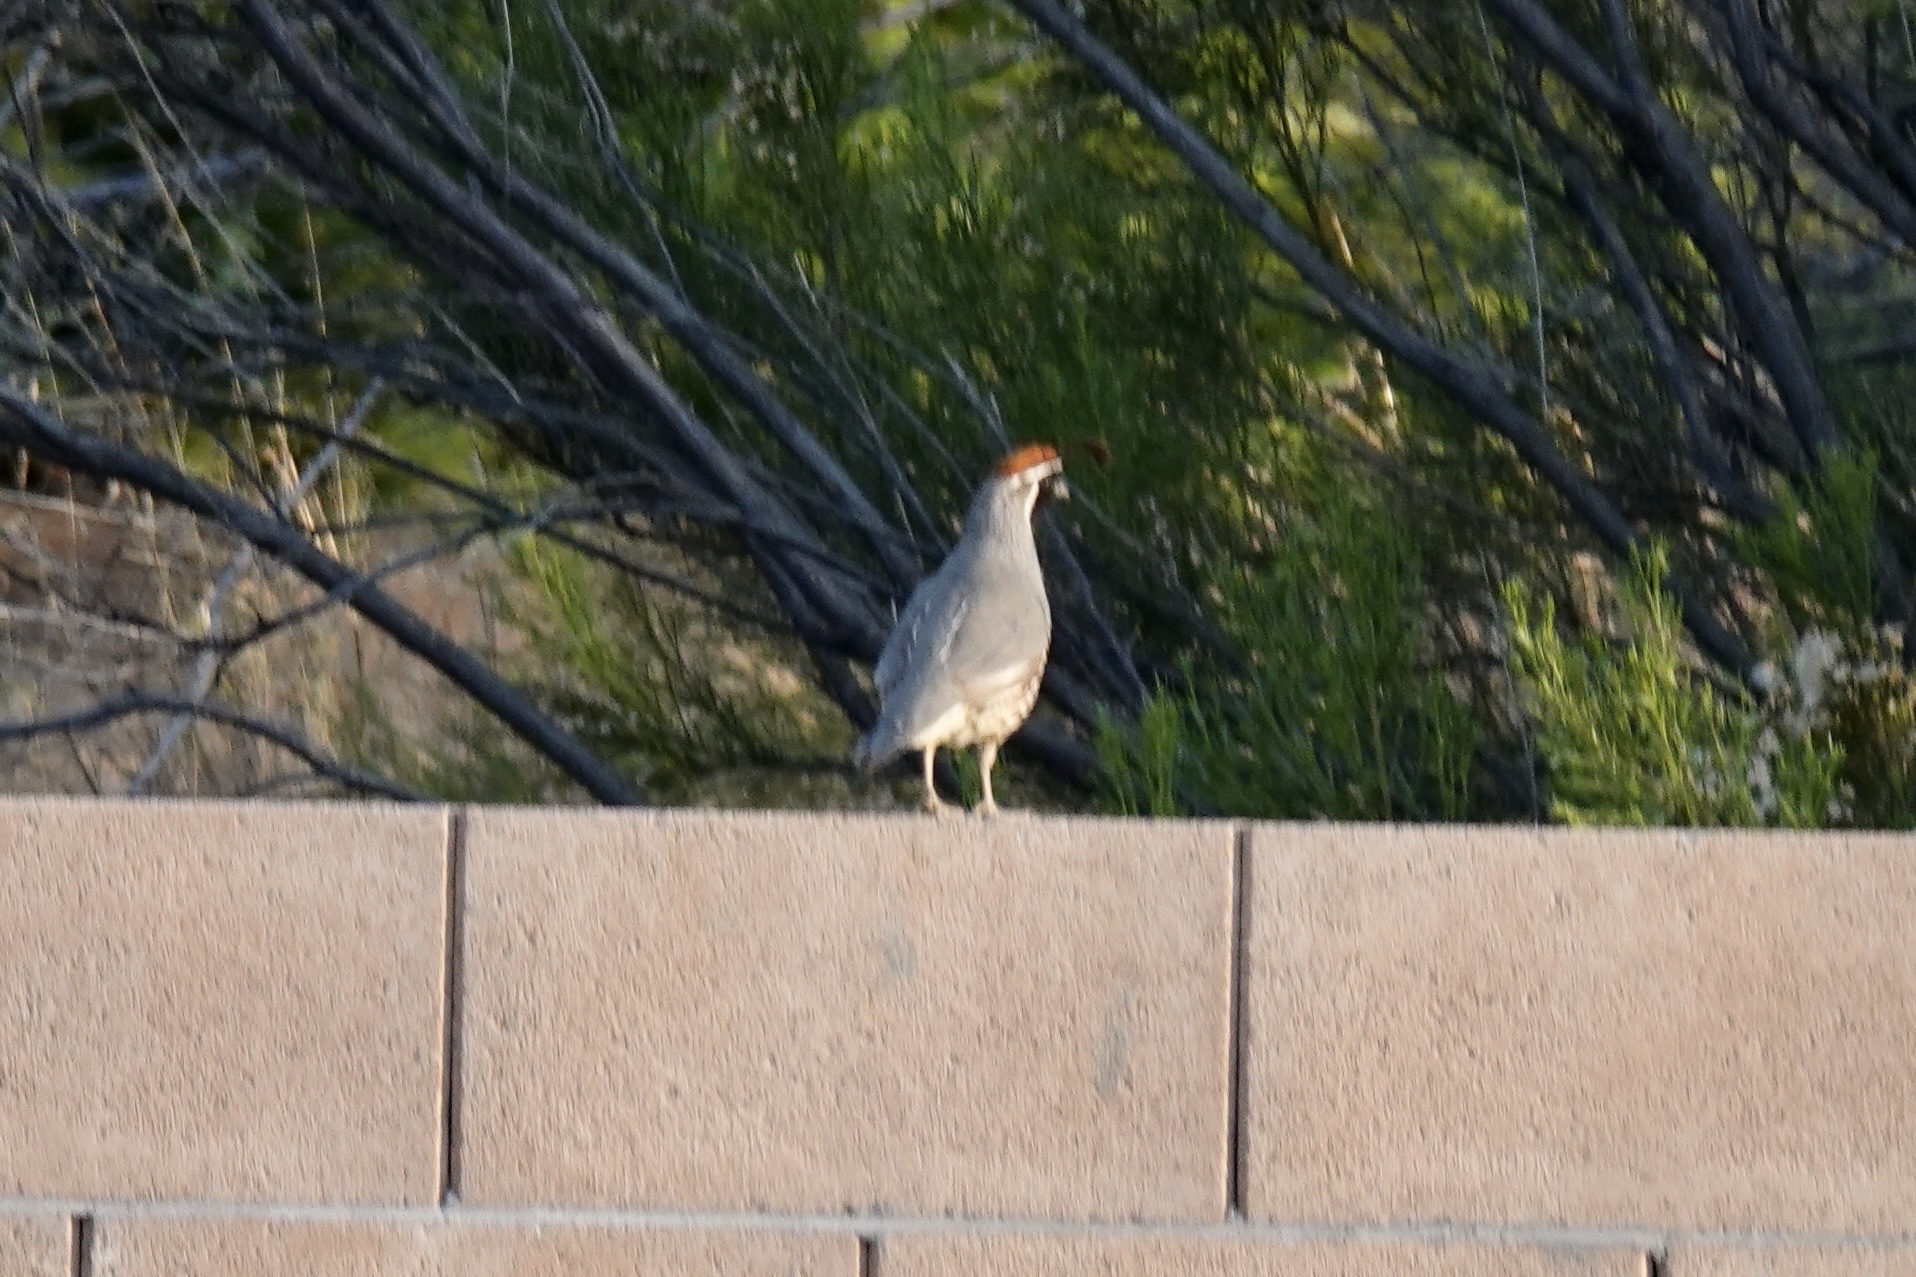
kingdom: Animalia
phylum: Chordata
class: Aves
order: Galliformes
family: Odontophoridae
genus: Callipepla
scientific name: Callipepla gambelii
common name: Gambel's quail
